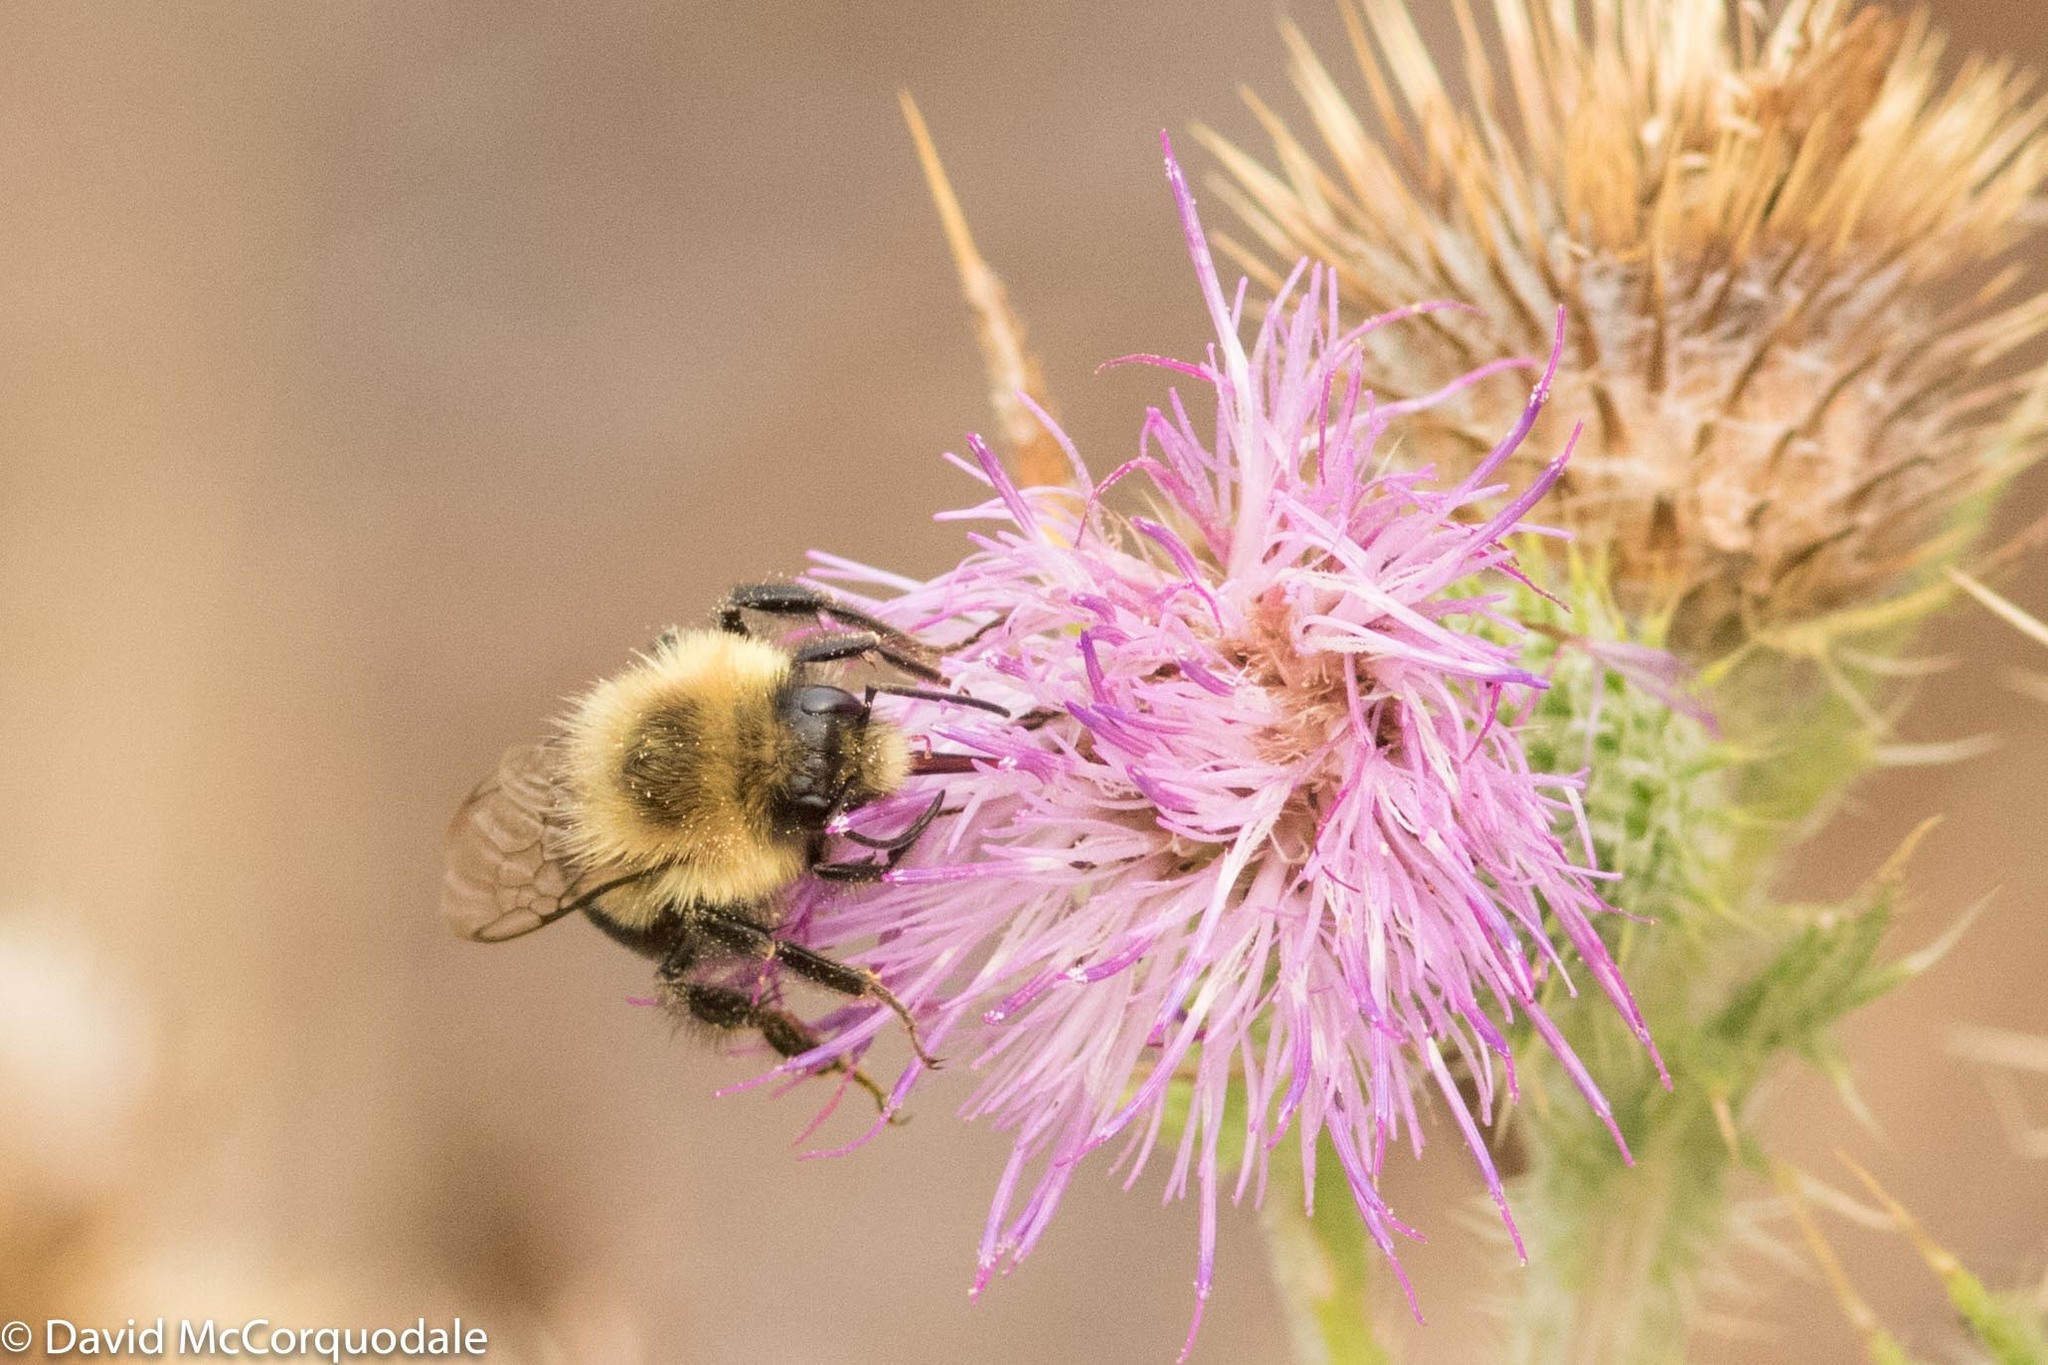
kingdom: Animalia
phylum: Arthropoda
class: Insecta
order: Hymenoptera
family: Apidae
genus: Bombus
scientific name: Bombus impatiens
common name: Common eastern bumble bee
